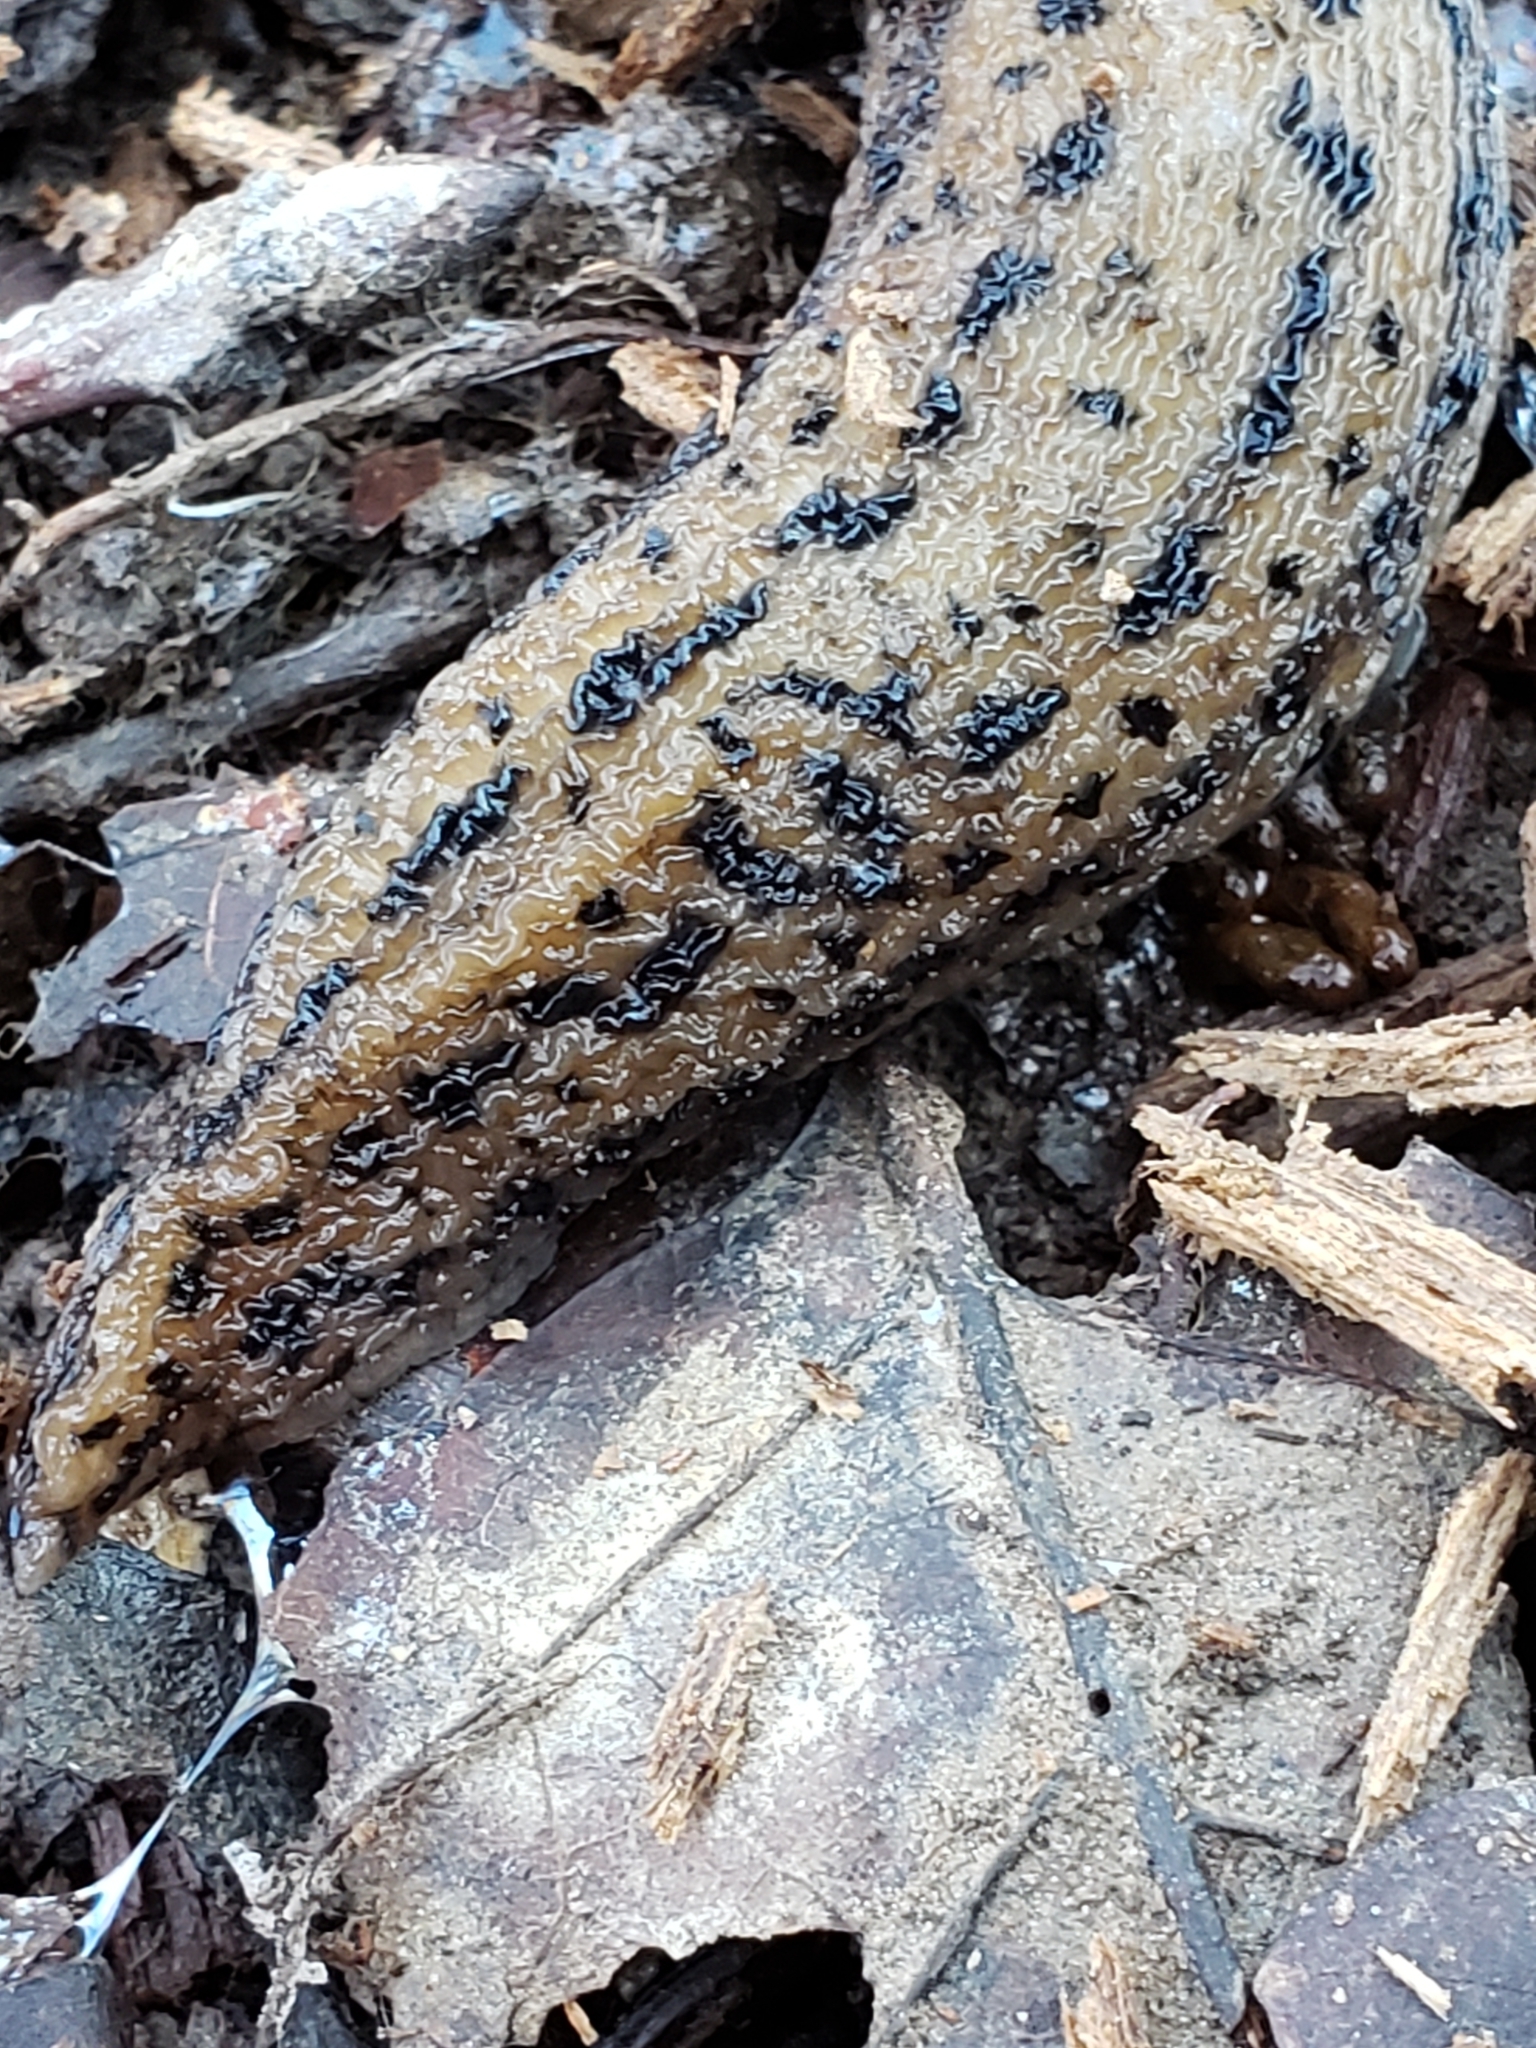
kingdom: Animalia
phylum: Mollusca
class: Gastropoda
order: Stylommatophora
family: Limacidae
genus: Limax
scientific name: Limax maximus
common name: Great grey slug
